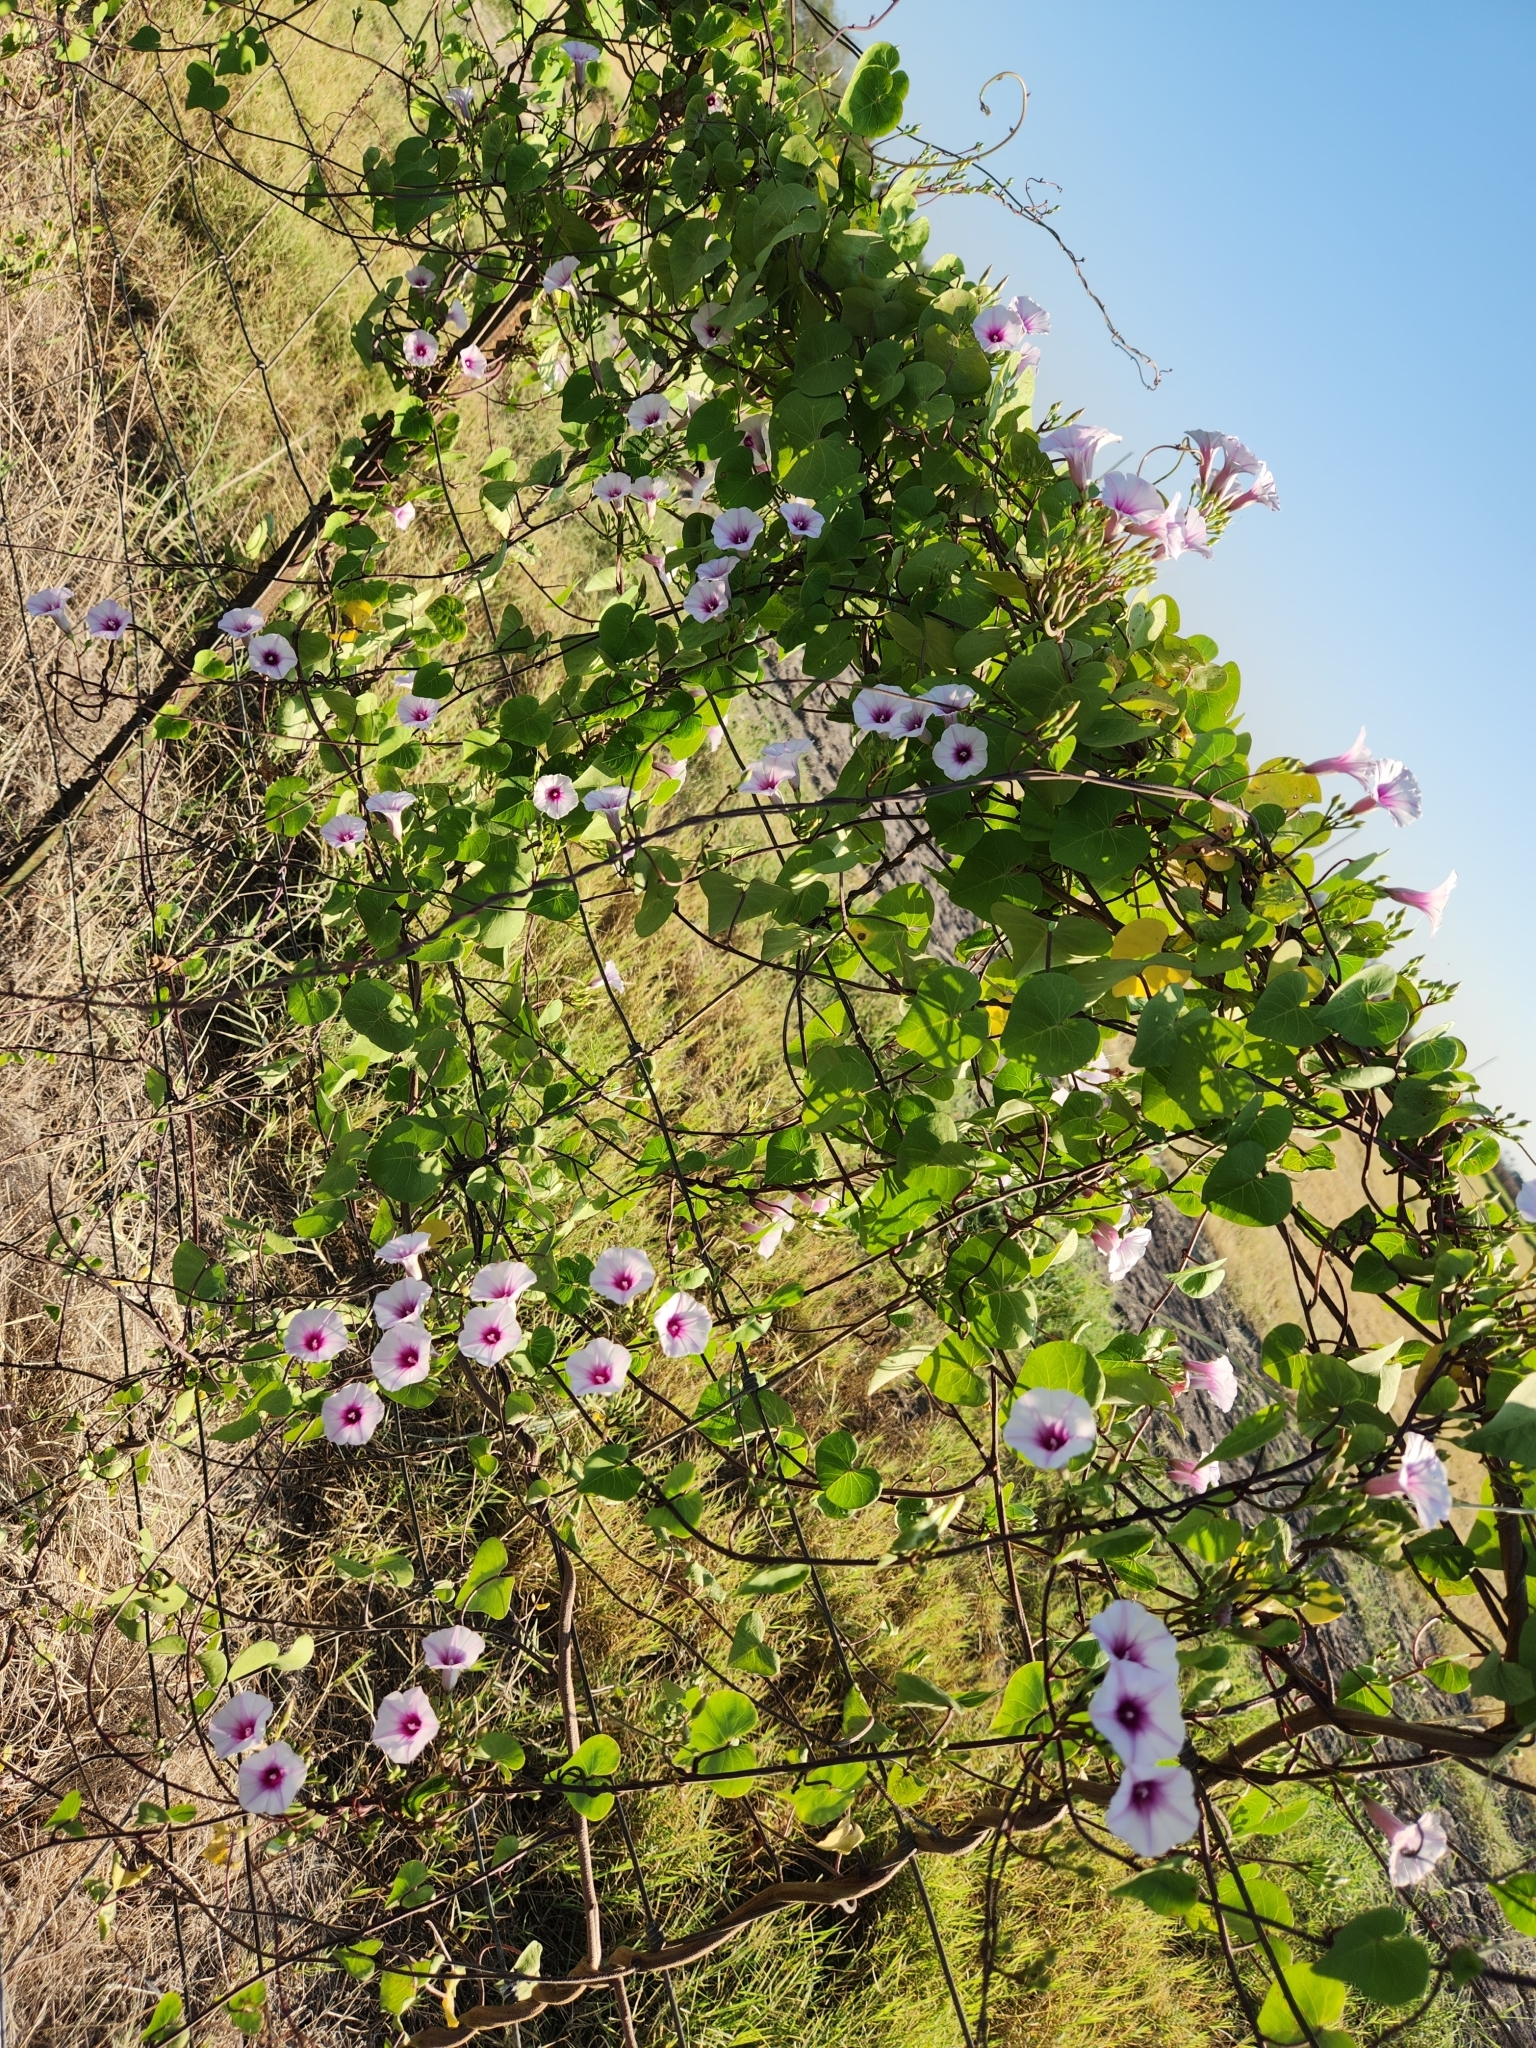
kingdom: Plantae
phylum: Tracheophyta
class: Magnoliopsida
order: Solanales
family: Convolvulaceae
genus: Ipomoea
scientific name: Ipomoea amnicola
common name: Redcenter morning-glory
